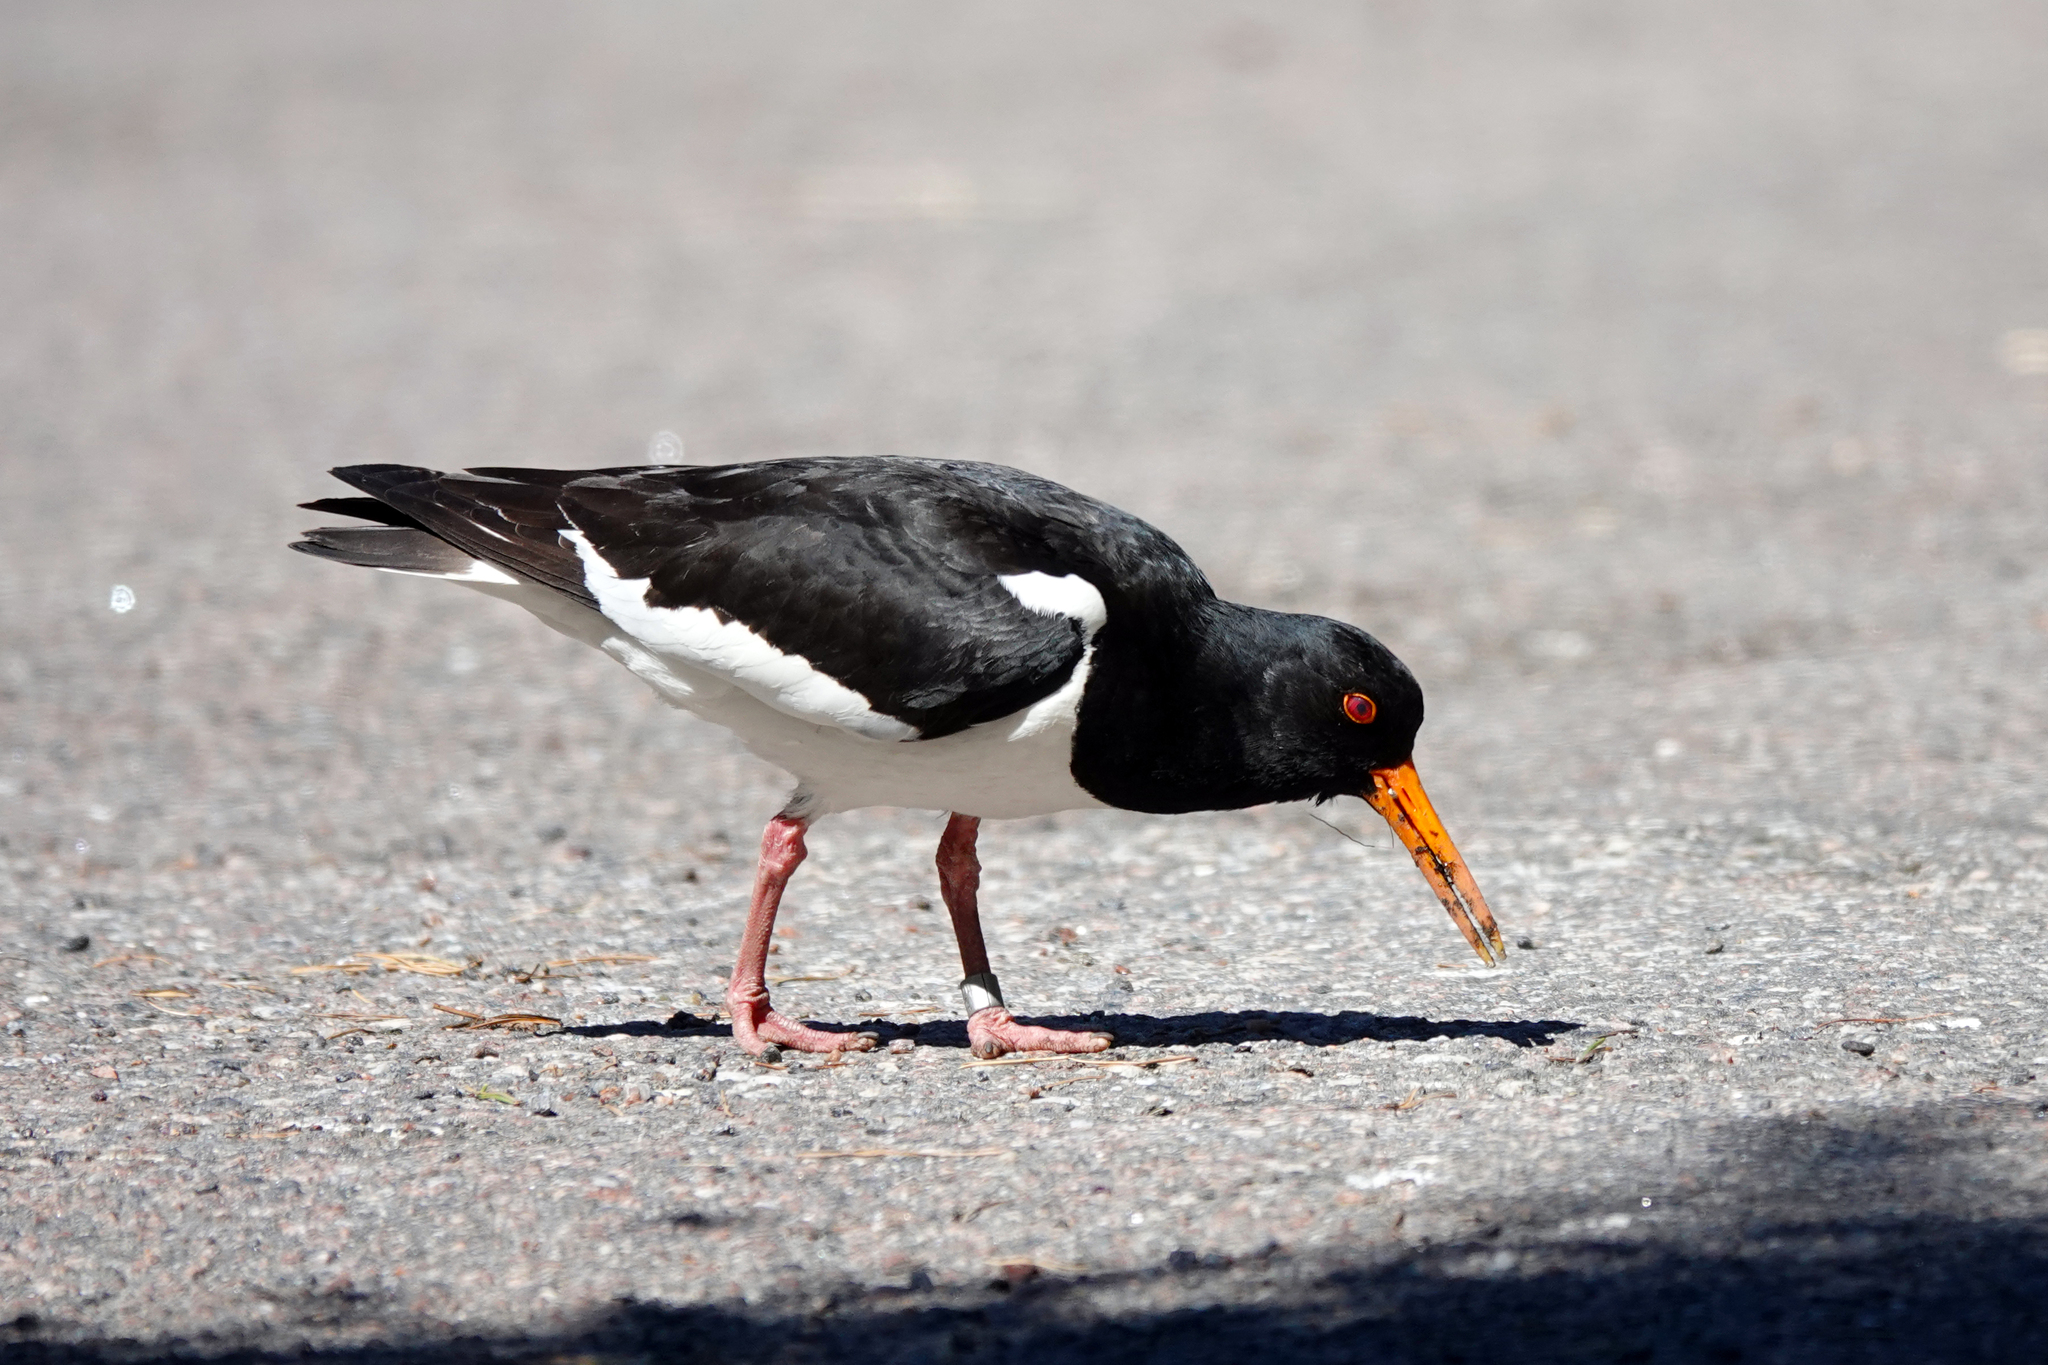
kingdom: Animalia
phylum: Chordata
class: Aves
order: Charadriiformes
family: Haematopodidae
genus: Haematopus
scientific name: Haematopus ostralegus
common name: Eurasian oystercatcher
